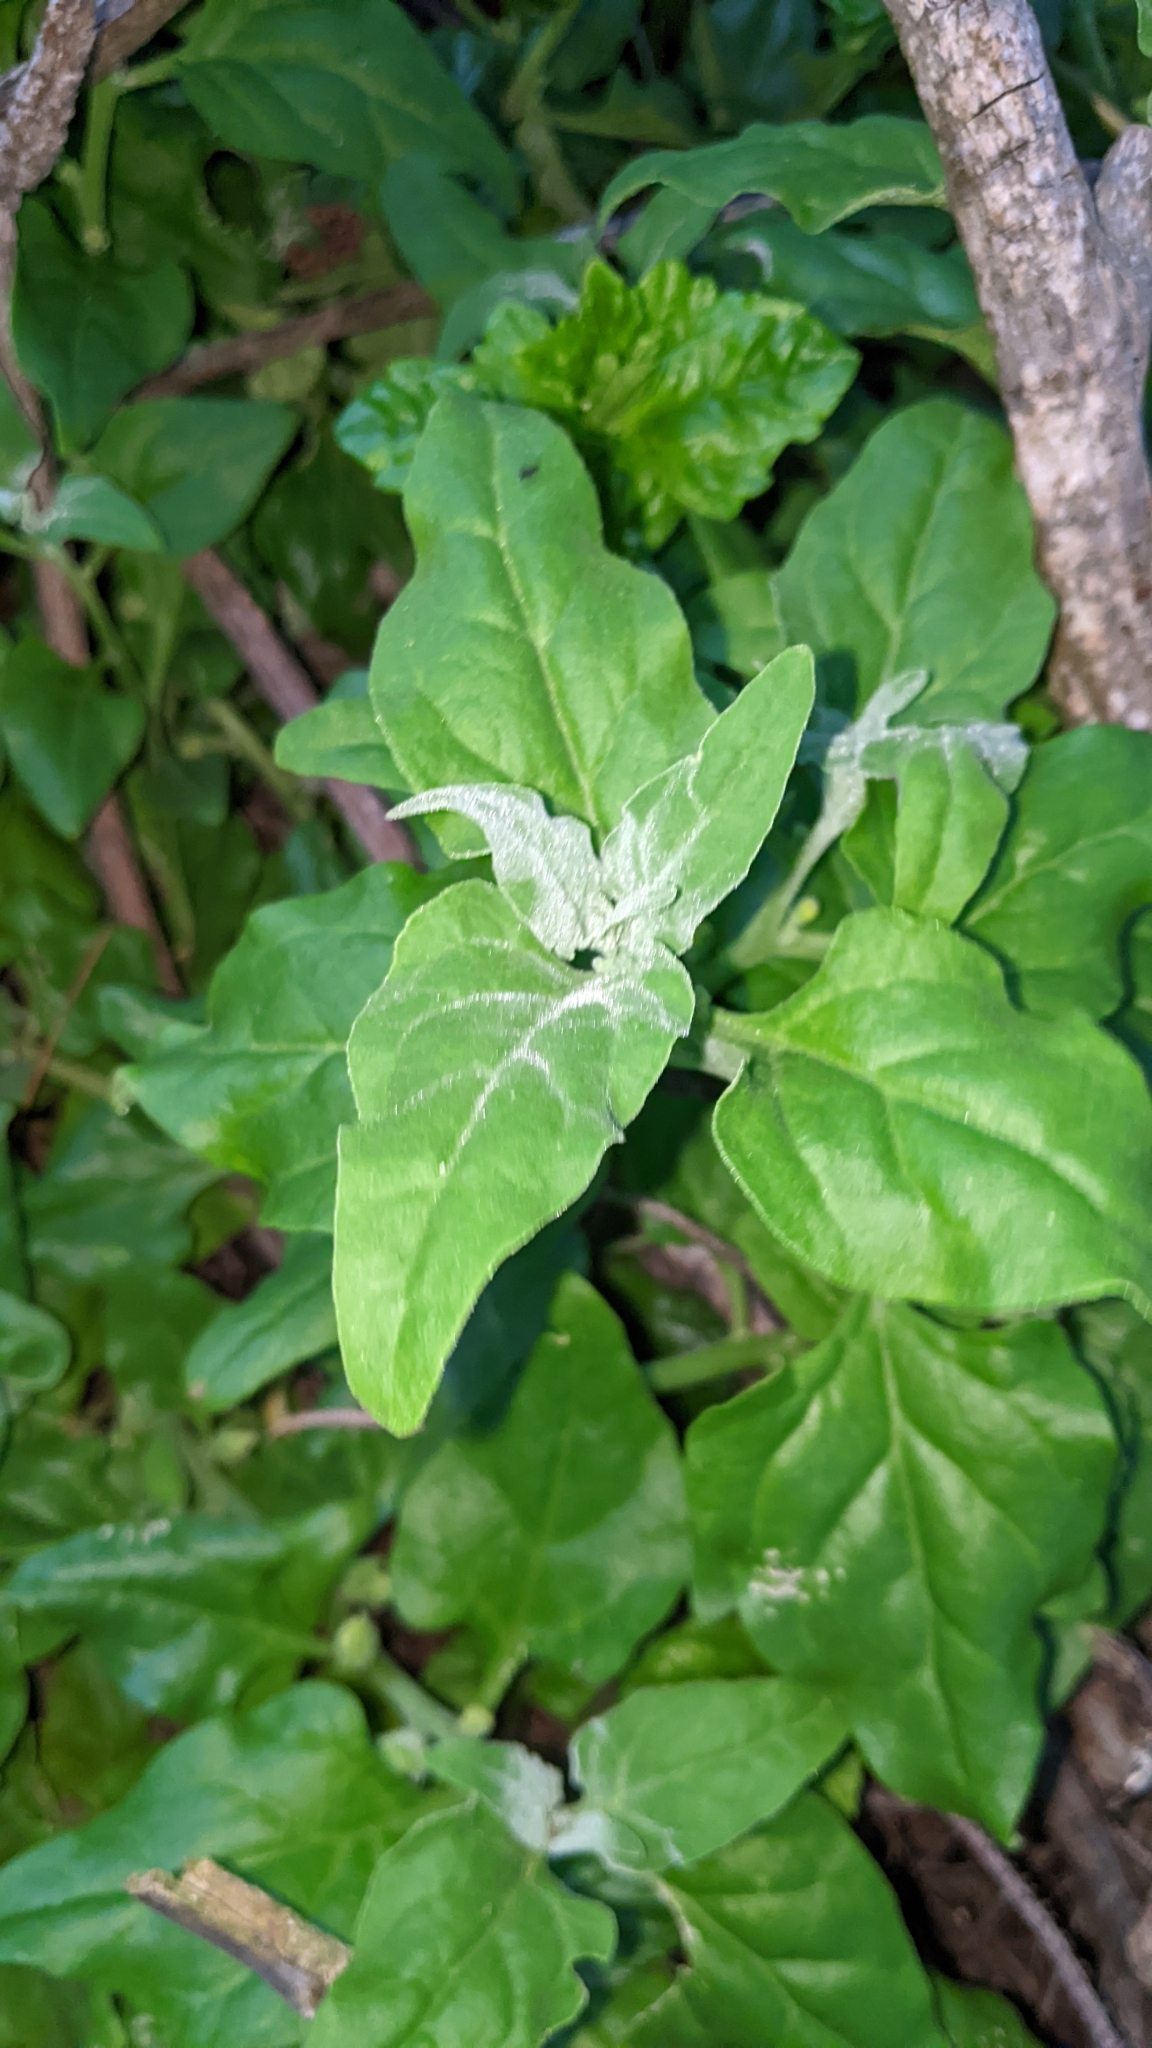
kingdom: Plantae
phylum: Tracheophyta
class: Magnoliopsida
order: Caryophyllales
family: Aizoaceae
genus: Tetragonia
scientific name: Tetragonia tetragonoides
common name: New zealand-spinach
